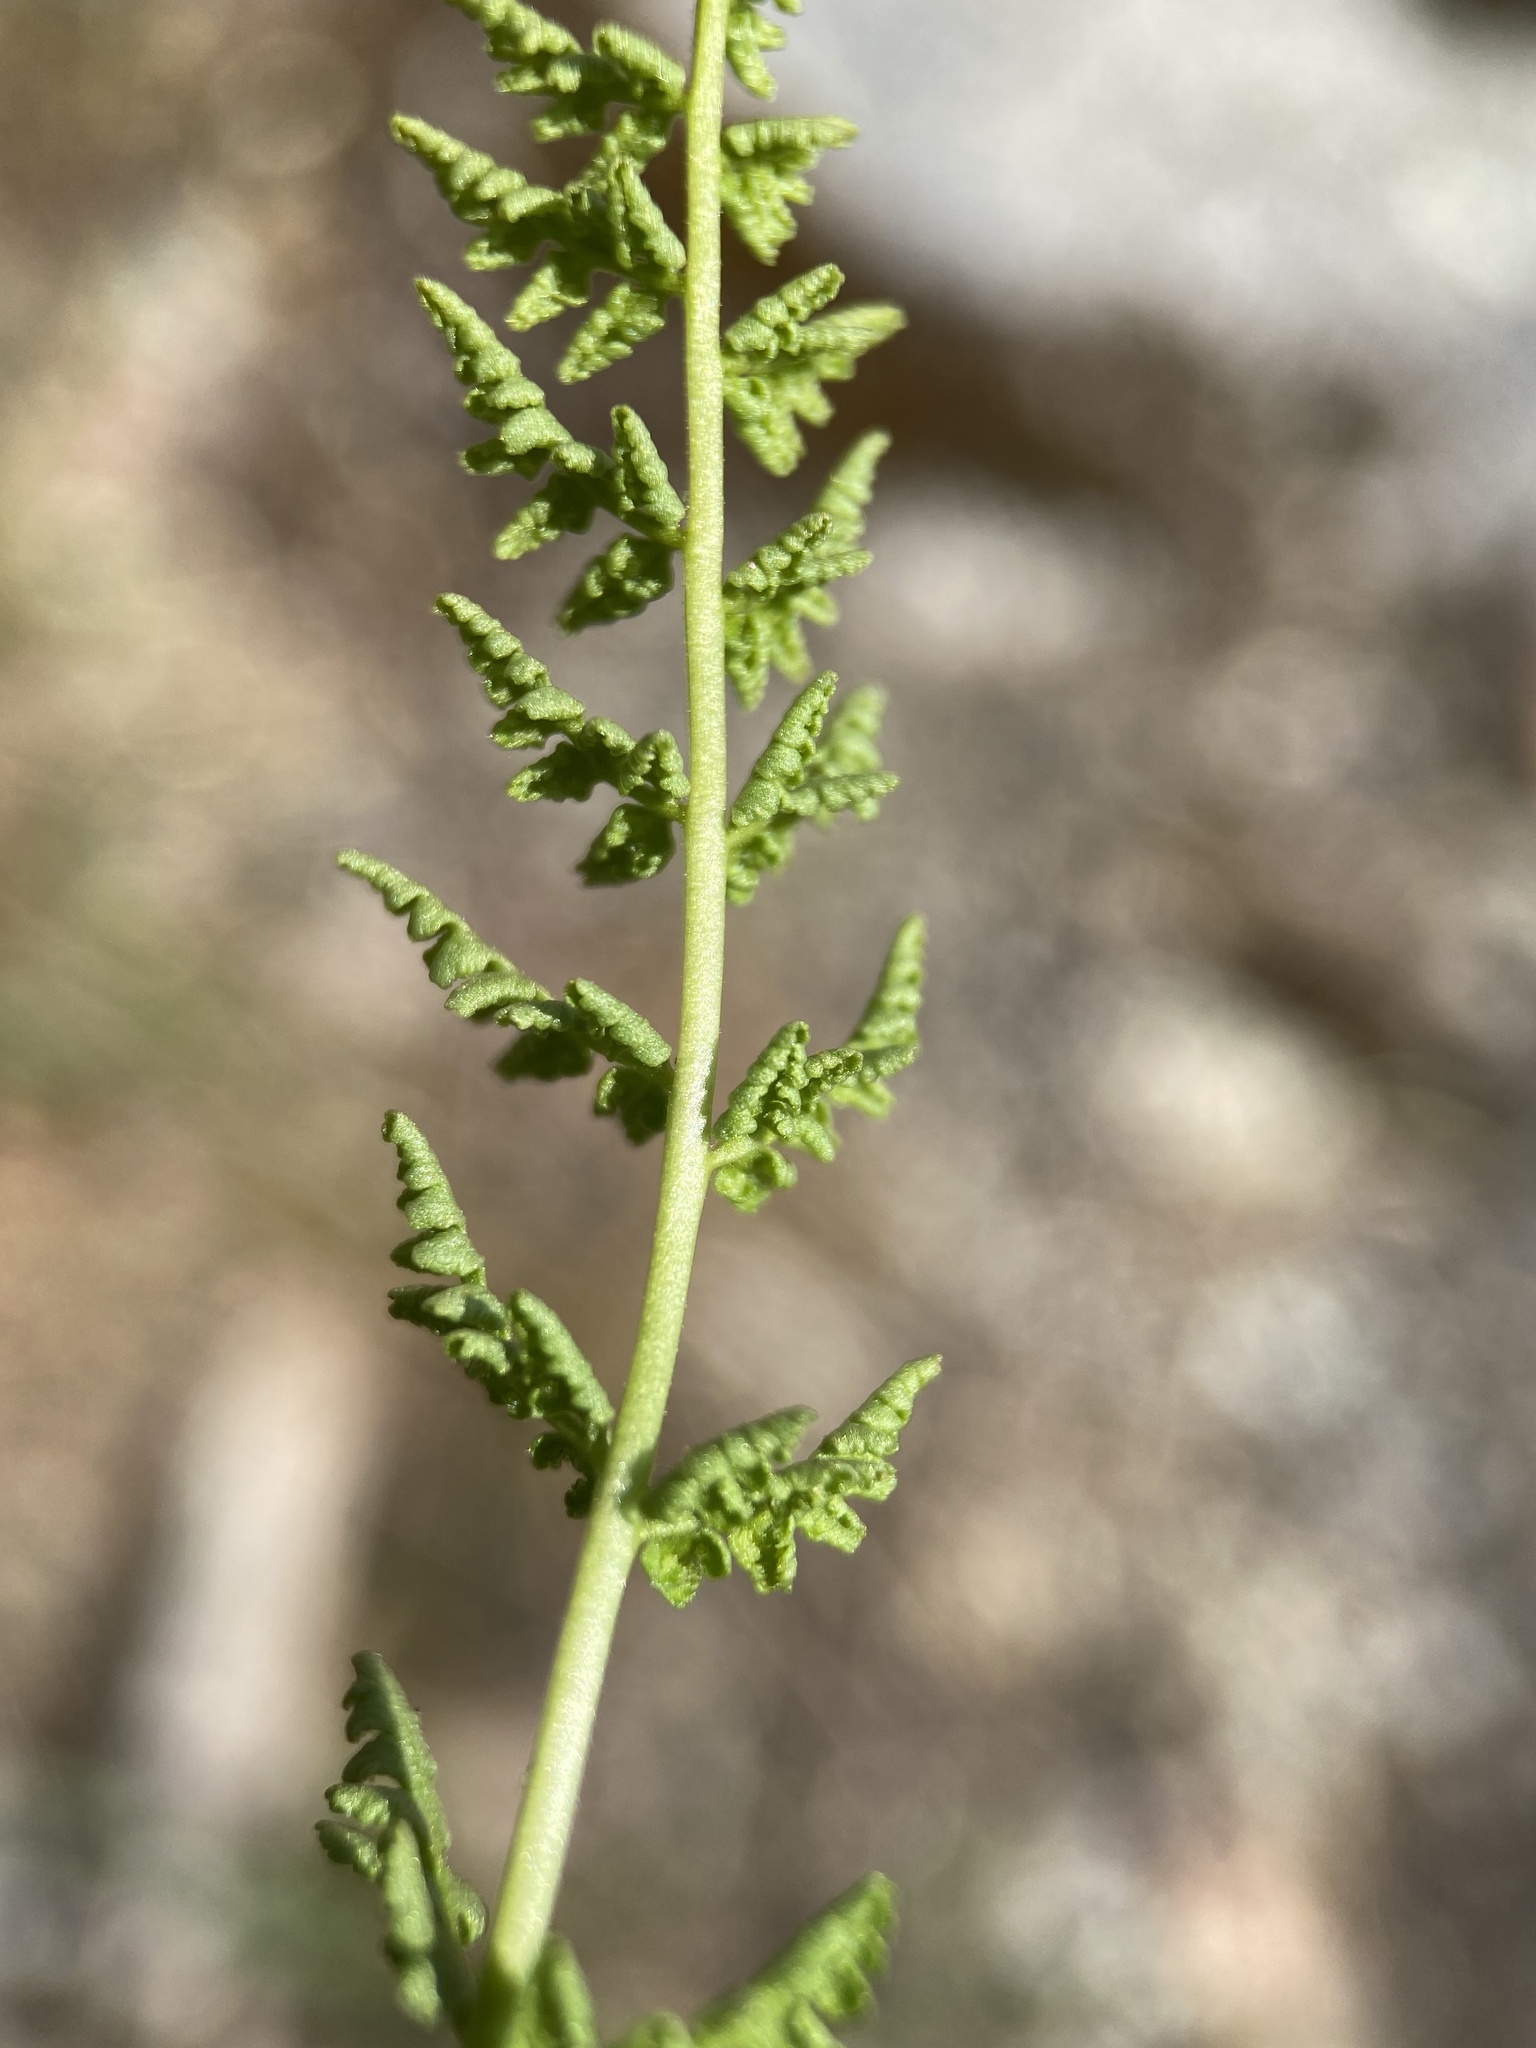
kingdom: Plantae
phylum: Tracheophyta
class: Polypodiopsida
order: Polypodiales
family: Woodsiaceae
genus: Physematium
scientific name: Physematium oreganum
